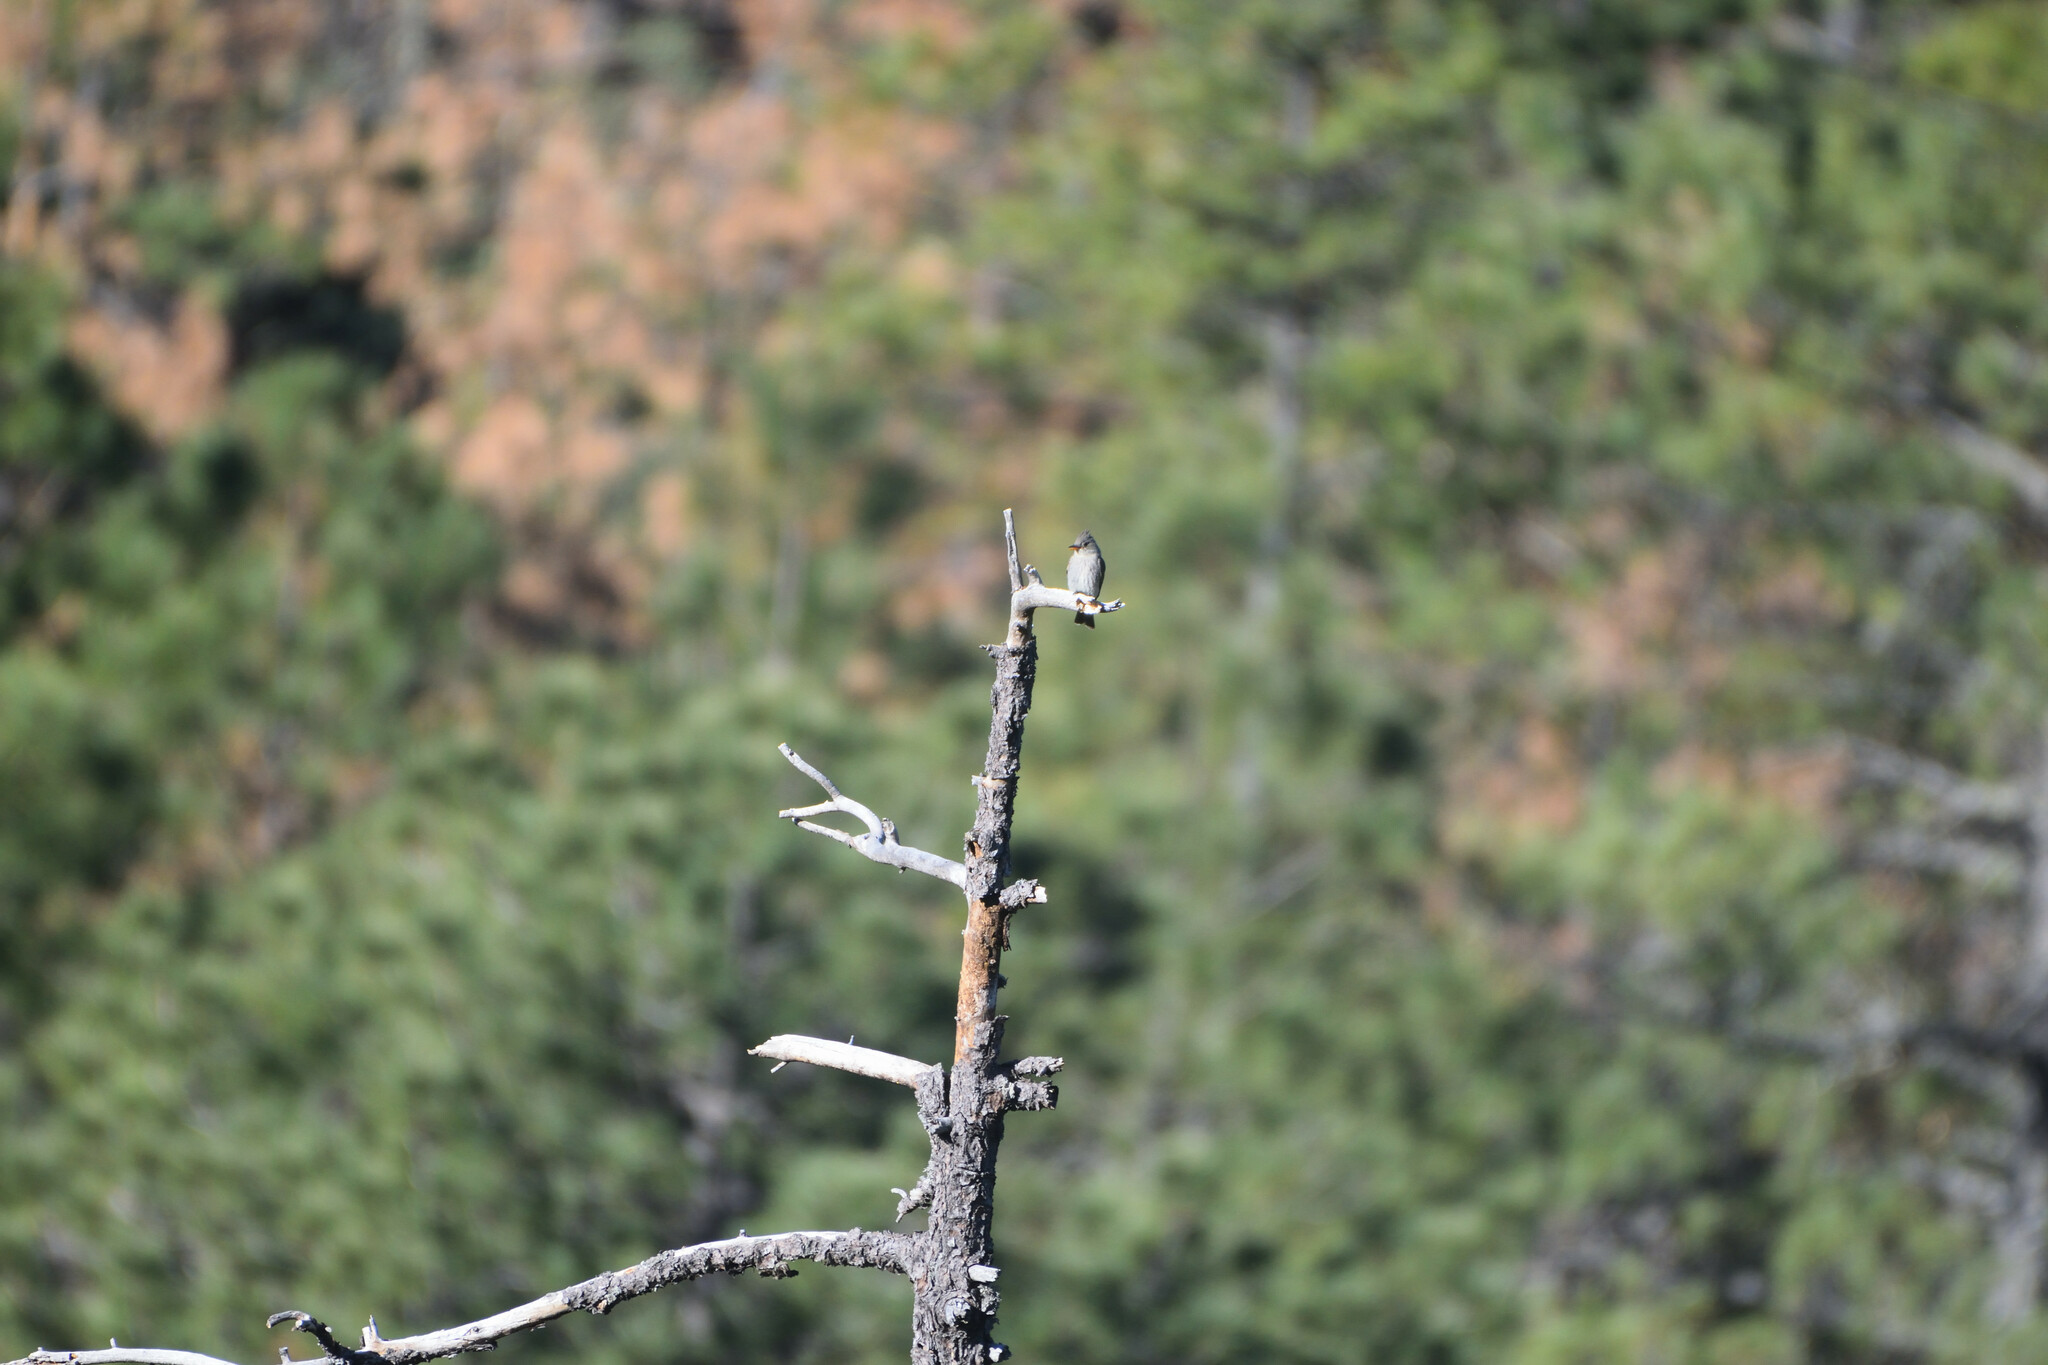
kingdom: Animalia
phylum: Chordata
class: Aves
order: Passeriformes
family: Tyrannidae
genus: Contopus
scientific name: Contopus pertinax
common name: Greater pewee
